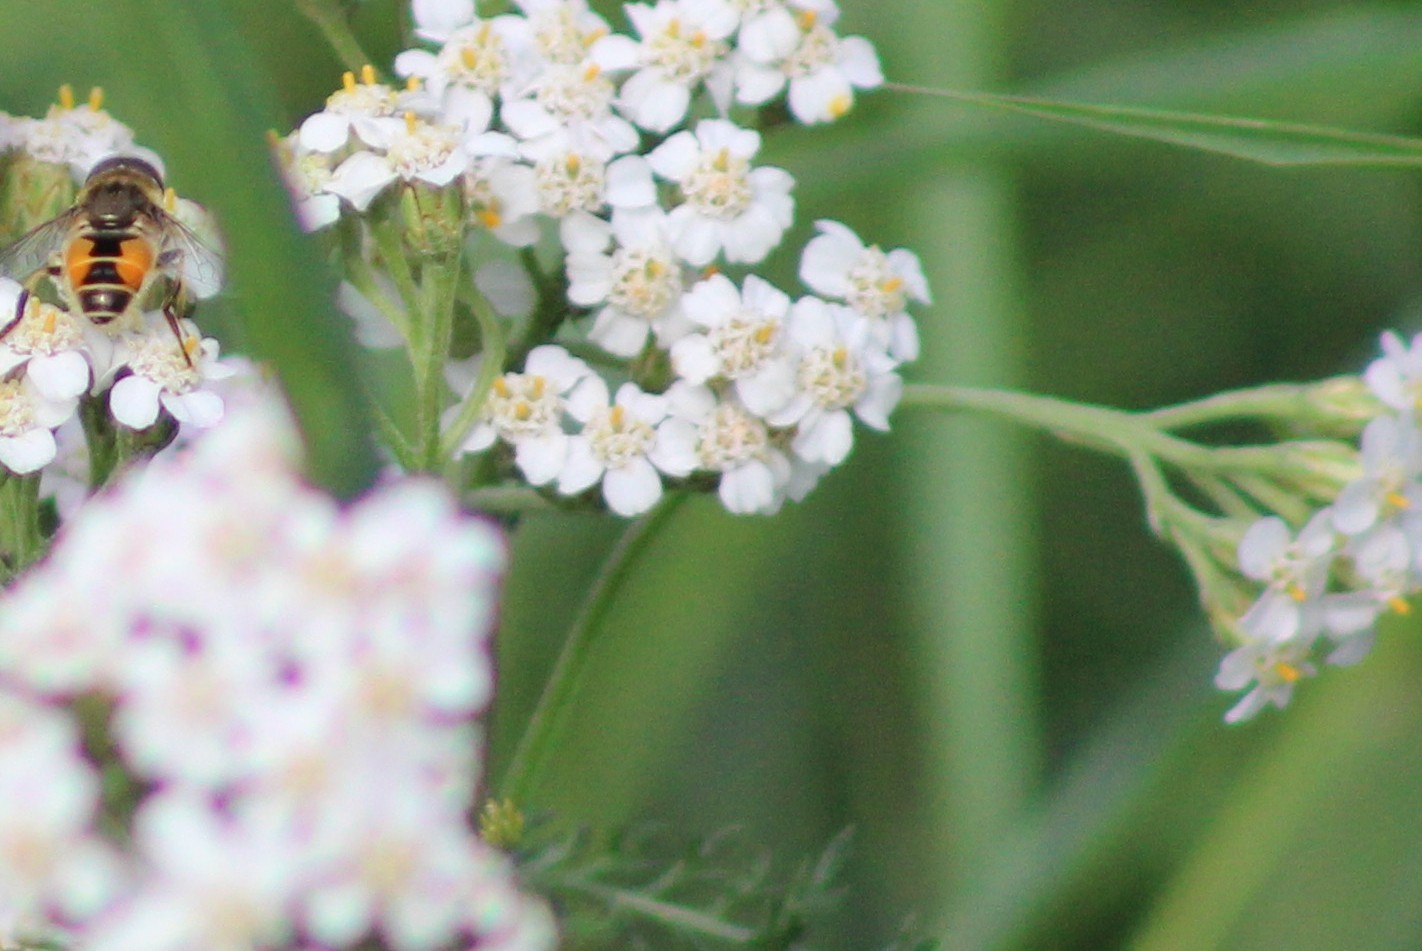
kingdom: Animalia
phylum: Arthropoda
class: Insecta
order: Diptera
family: Syrphidae
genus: Eristalis
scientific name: Eristalis arbustorum
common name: Hover fly
